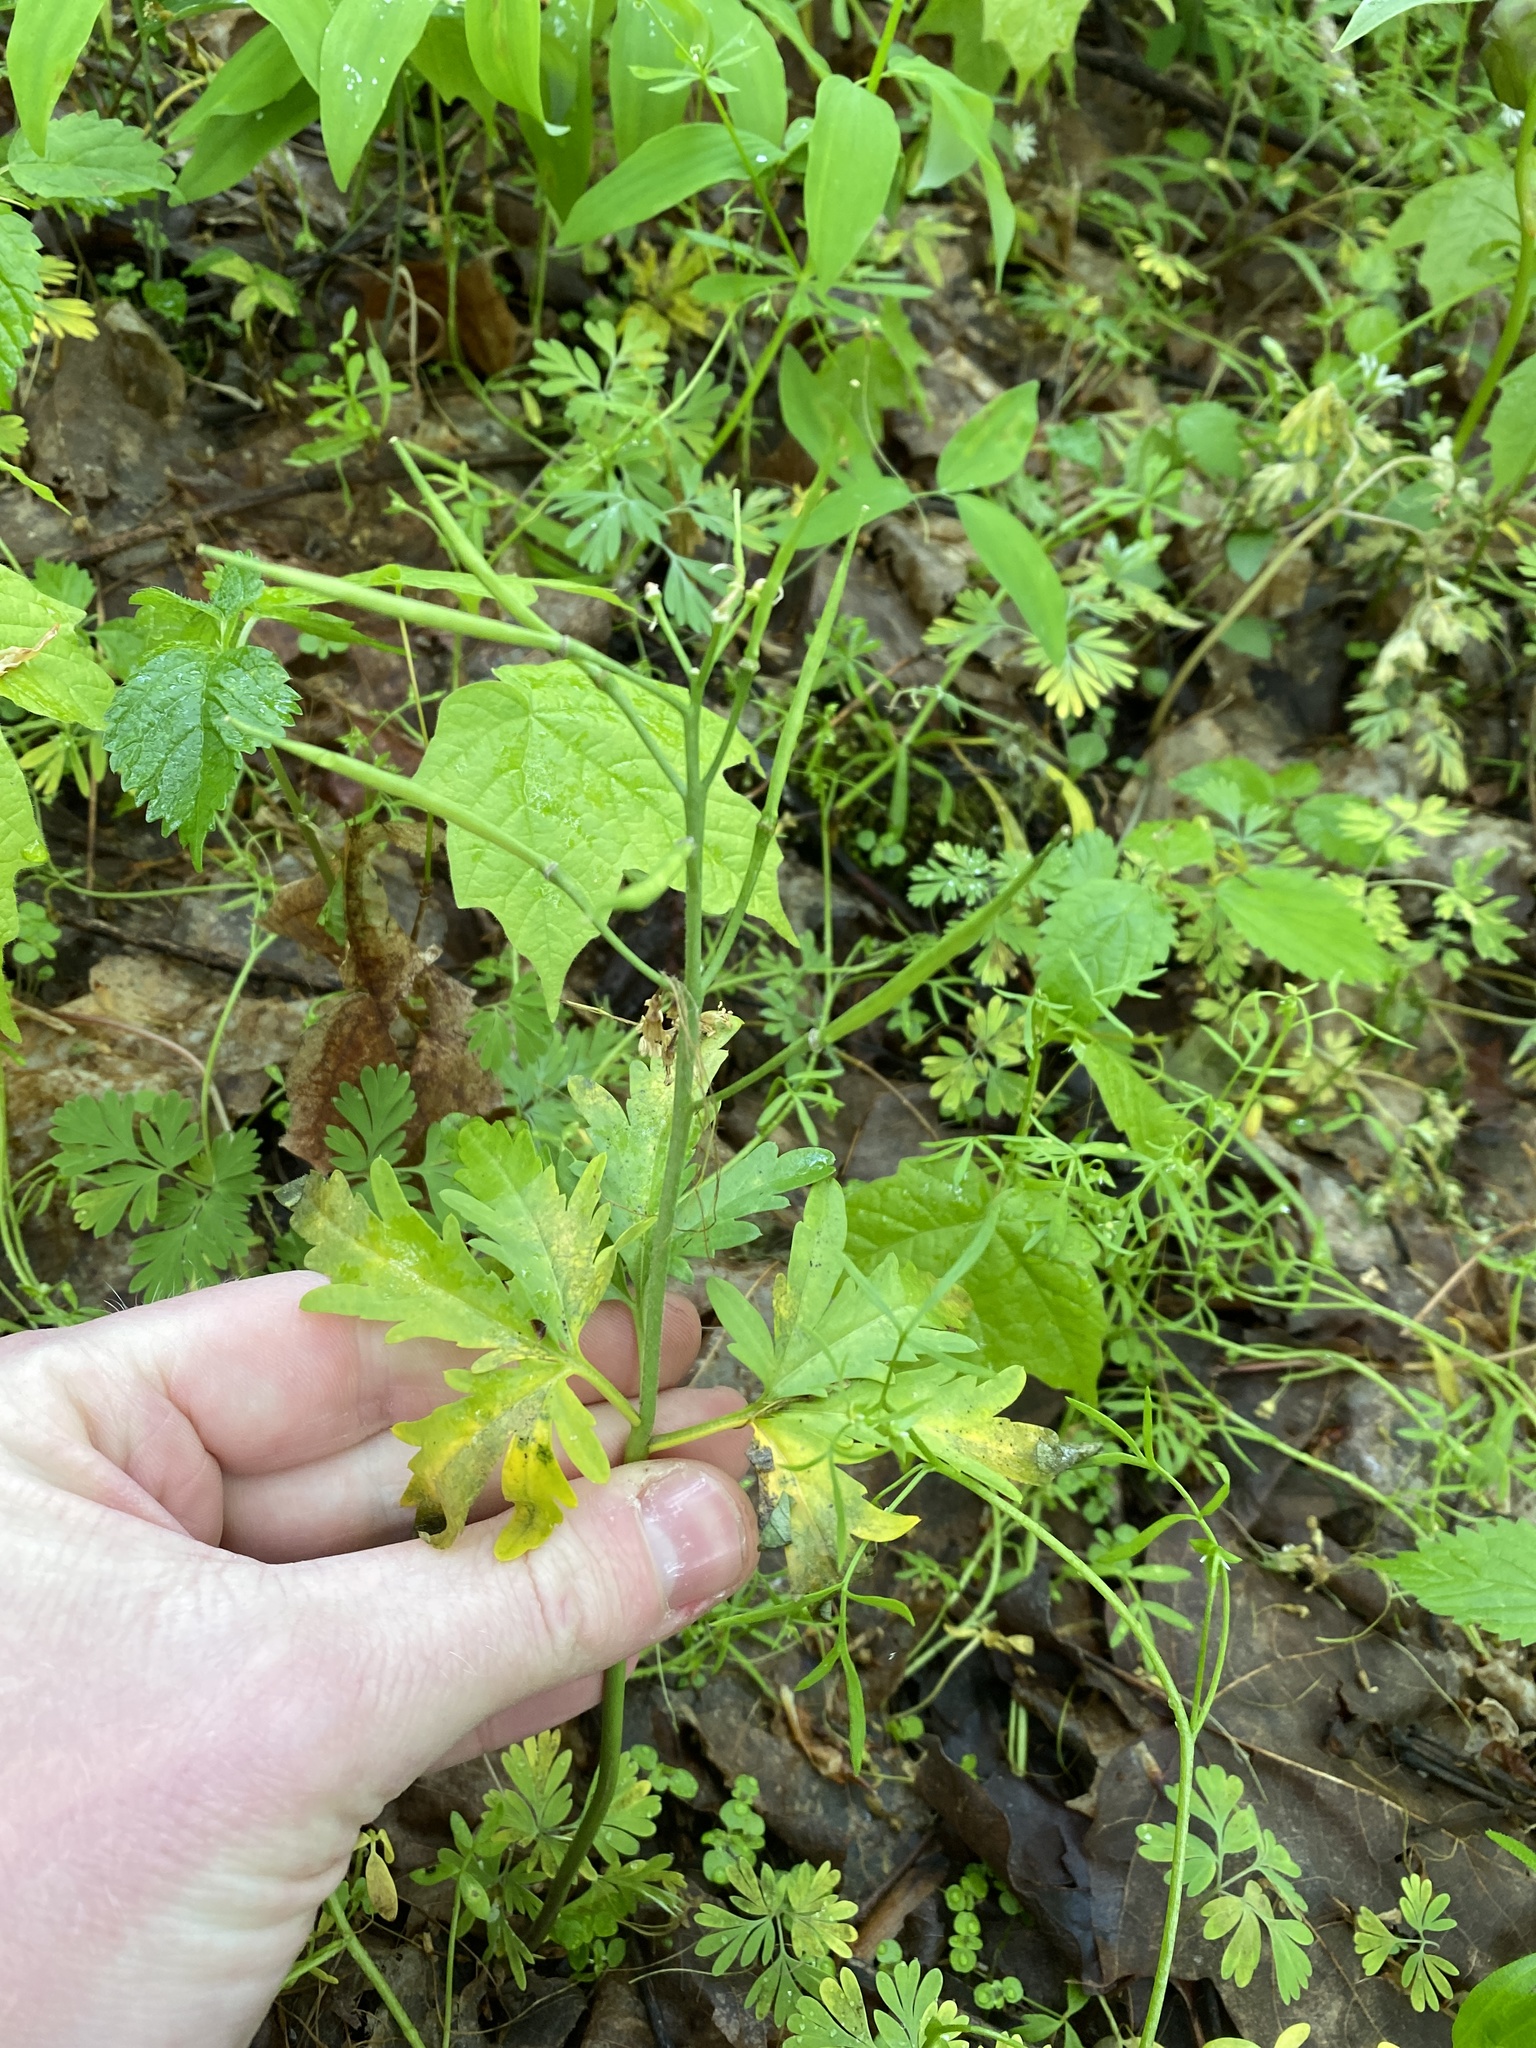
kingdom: Plantae
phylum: Tracheophyta
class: Magnoliopsida
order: Brassicales
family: Brassicaceae
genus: Cardamine
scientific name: Cardamine concatenata
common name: Cut-leaf toothcup
